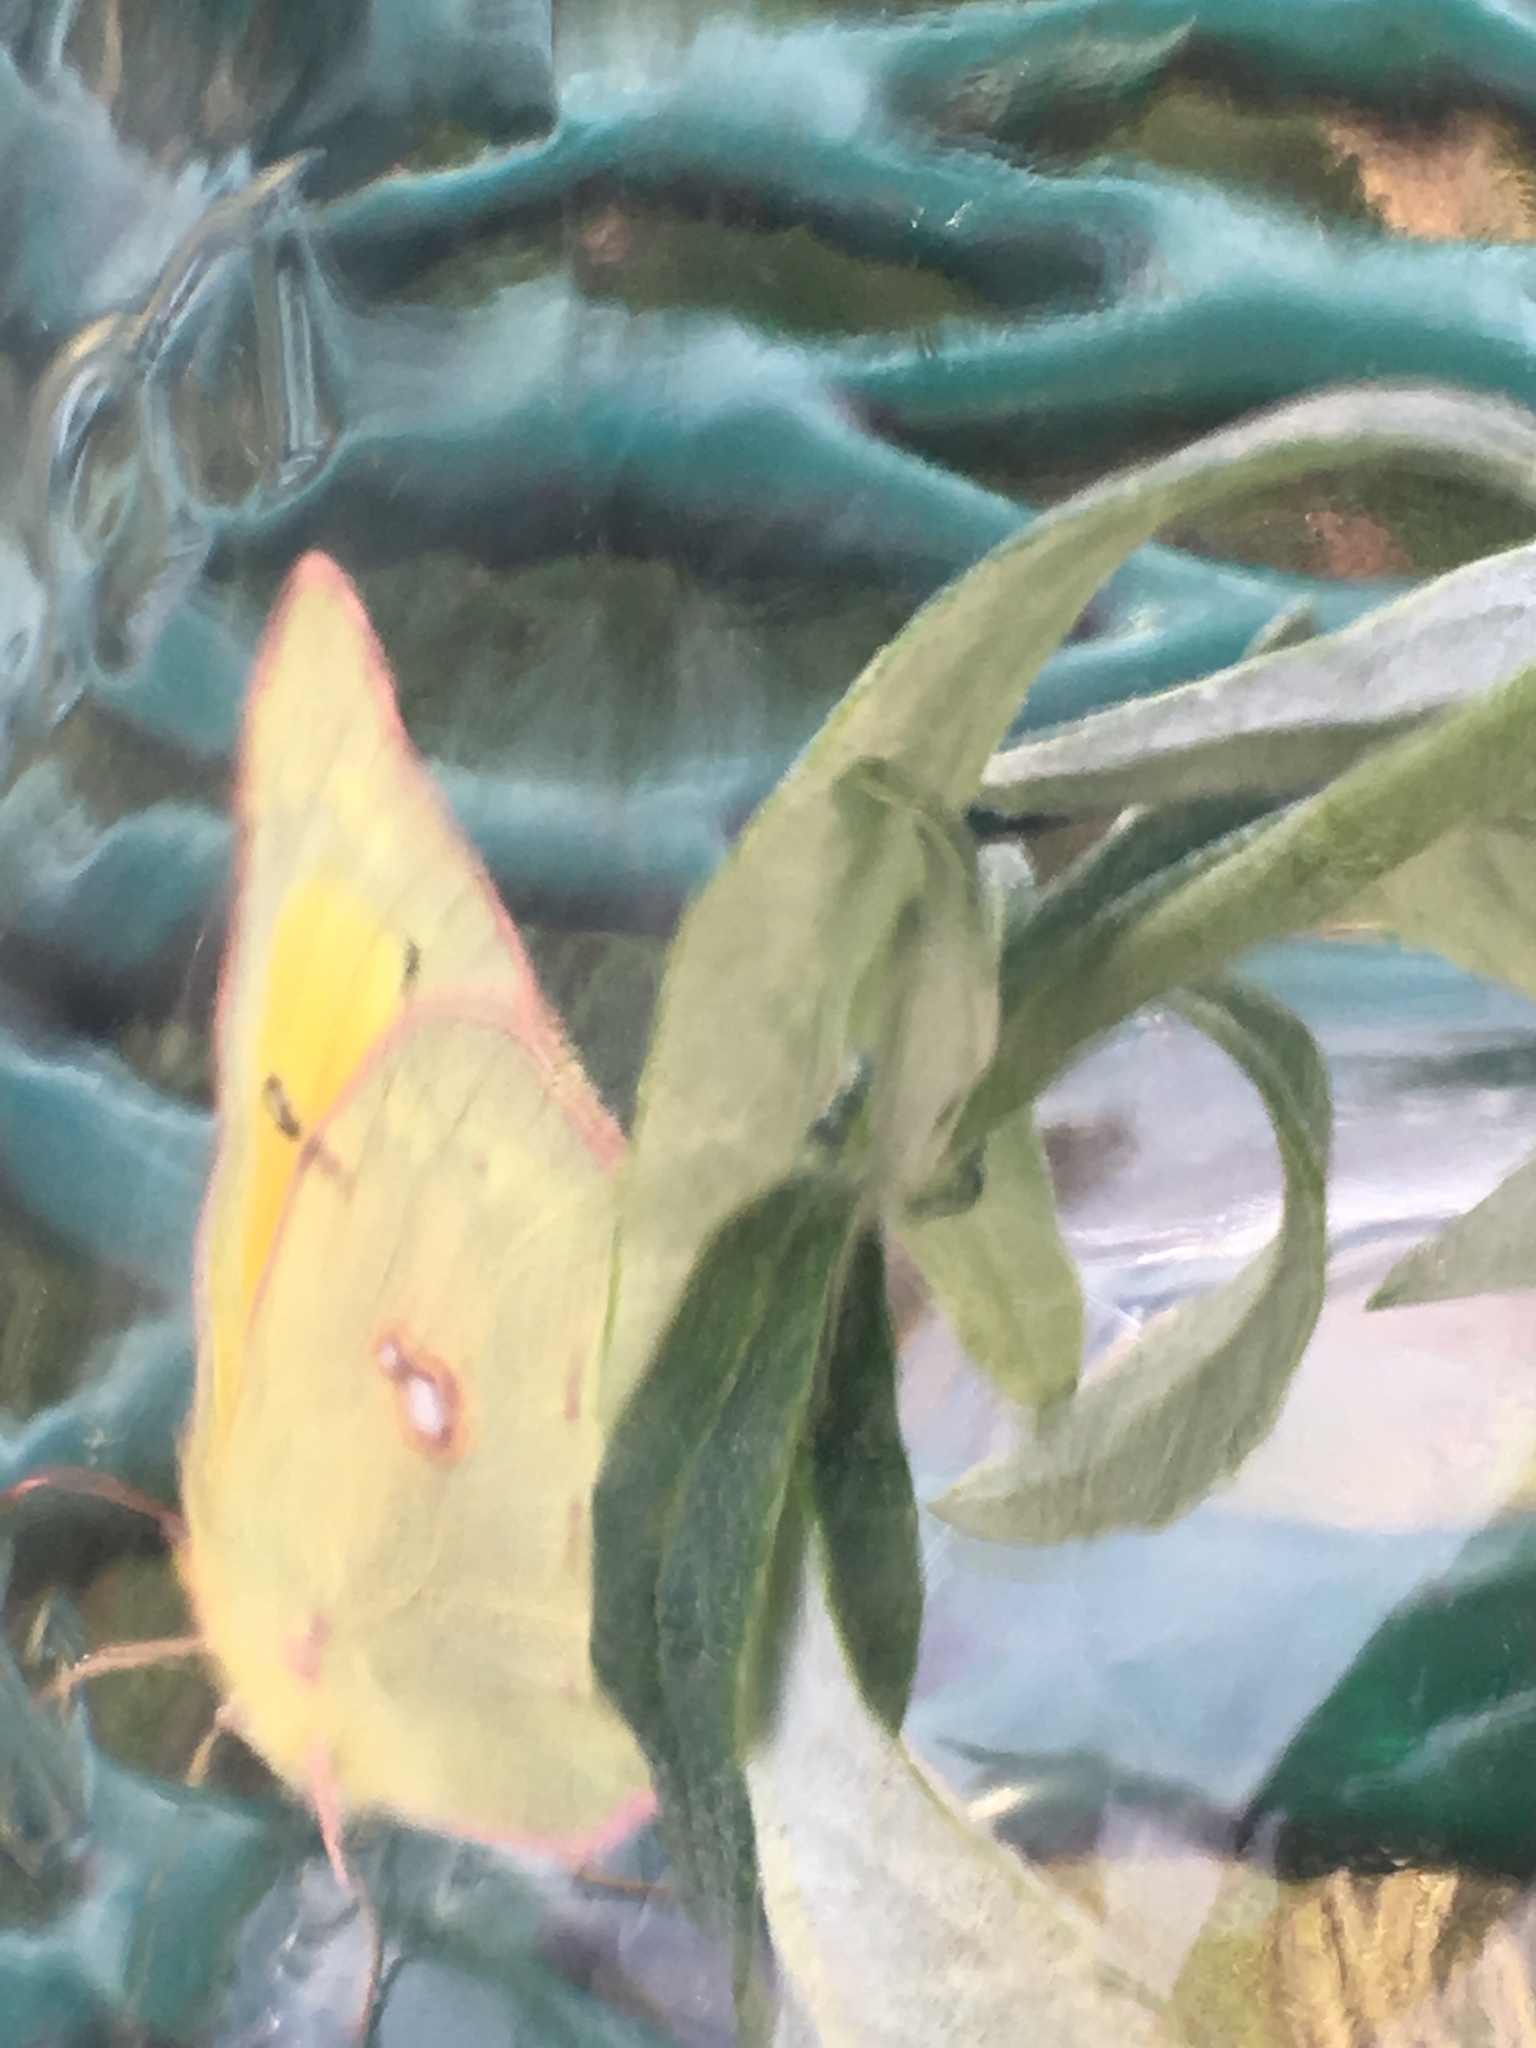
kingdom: Animalia
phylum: Arthropoda
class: Insecta
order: Lepidoptera
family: Pieridae
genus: Colias
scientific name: Colias eurytheme
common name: Alfalfa butterfly
